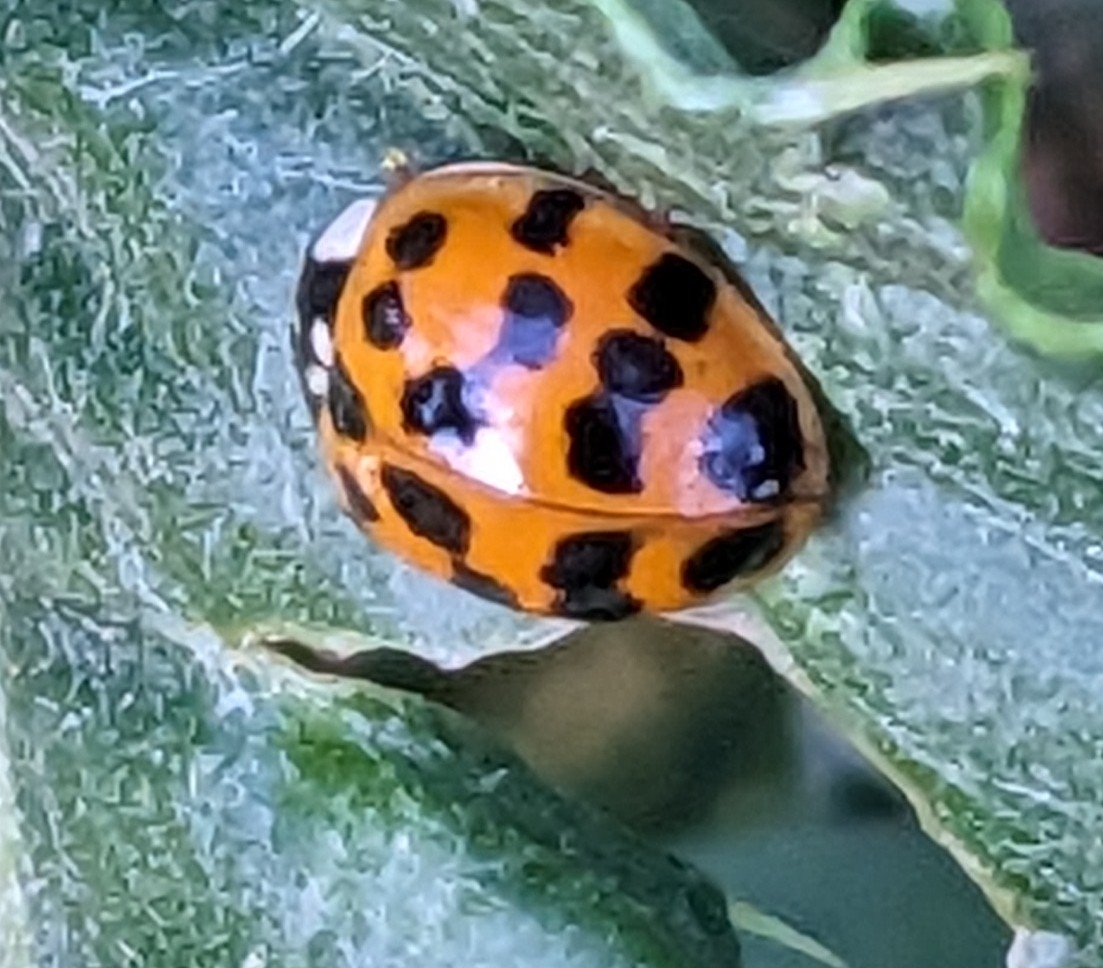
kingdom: Animalia
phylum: Arthropoda
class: Insecta
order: Coleoptera
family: Coccinellidae
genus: Harmonia
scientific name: Harmonia axyridis
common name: Harlequin ladybird
